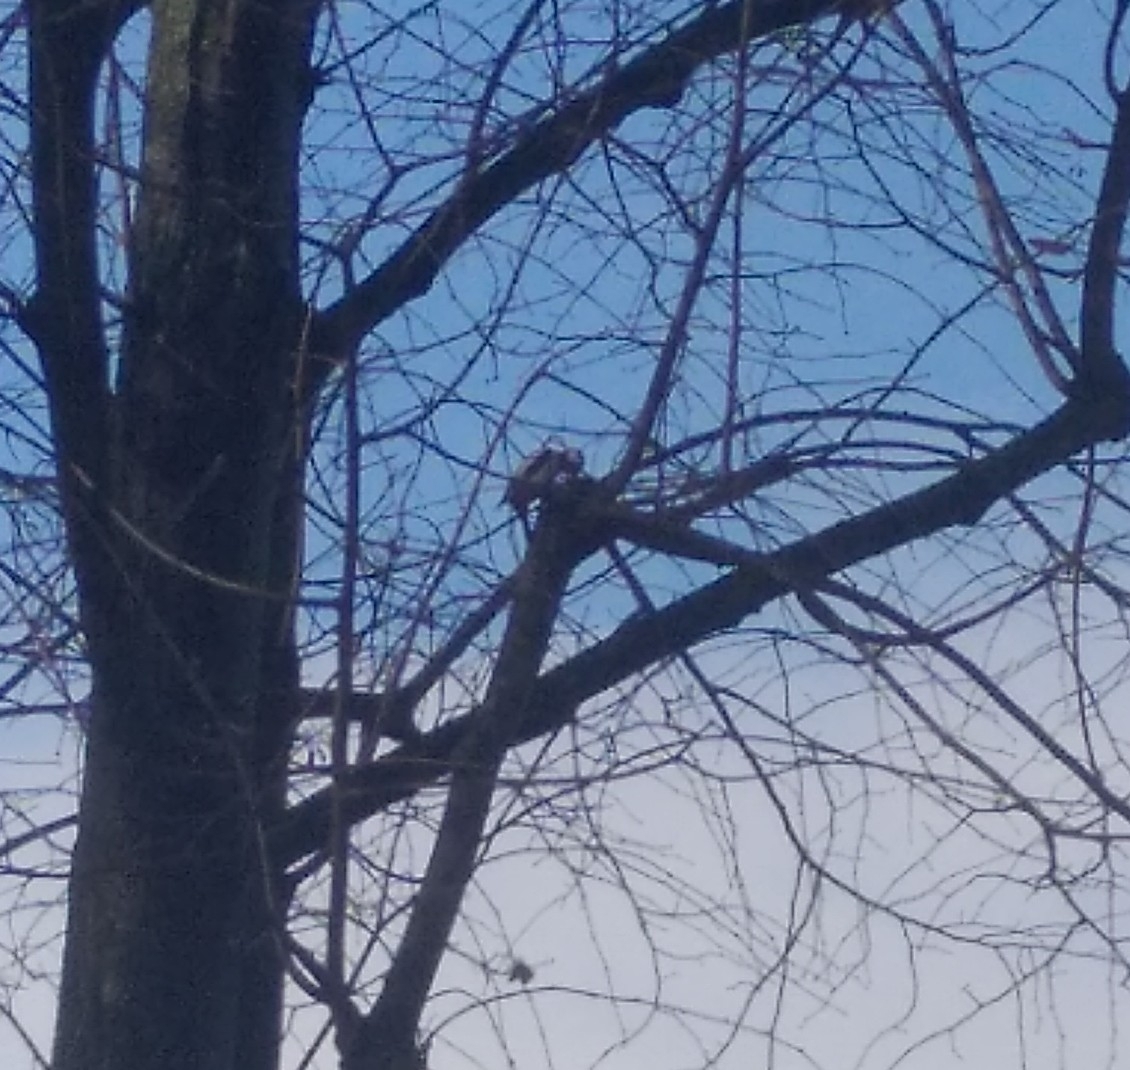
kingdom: Animalia
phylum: Chordata
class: Aves
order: Piciformes
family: Picidae
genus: Dendrocopos
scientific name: Dendrocopos major
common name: Great spotted woodpecker
